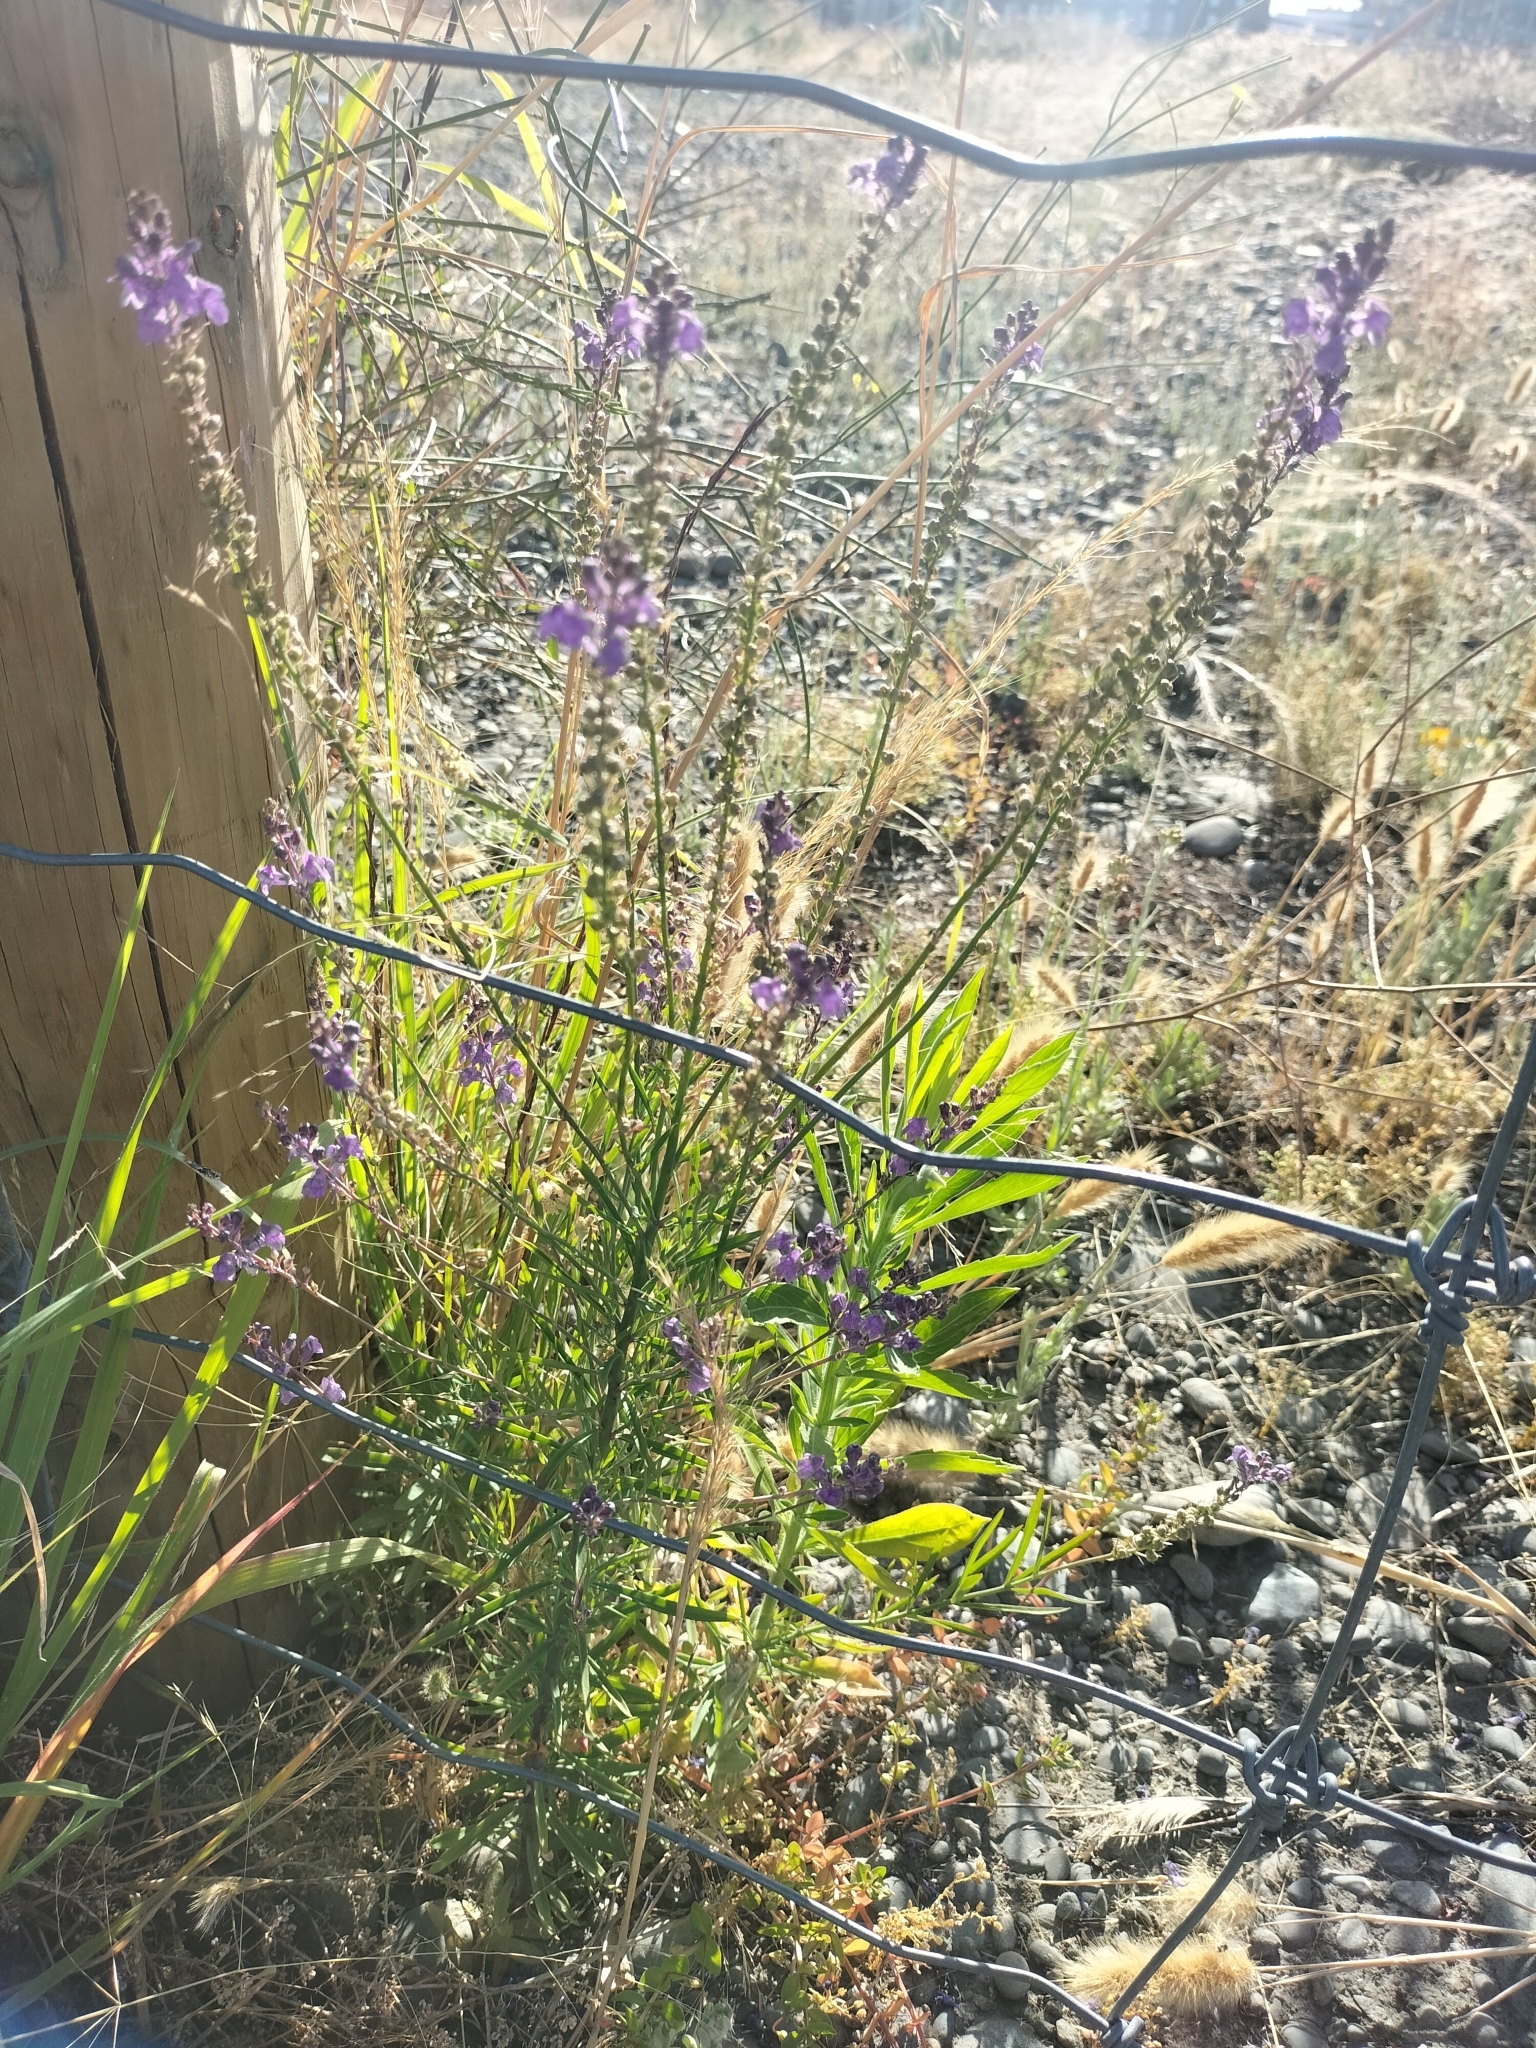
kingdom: Plantae
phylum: Tracheophyta
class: Magnoliopsida
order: Lamiales
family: Plantaginaceae
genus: Linaria
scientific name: Linaria purpurea
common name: Purple toadflax
